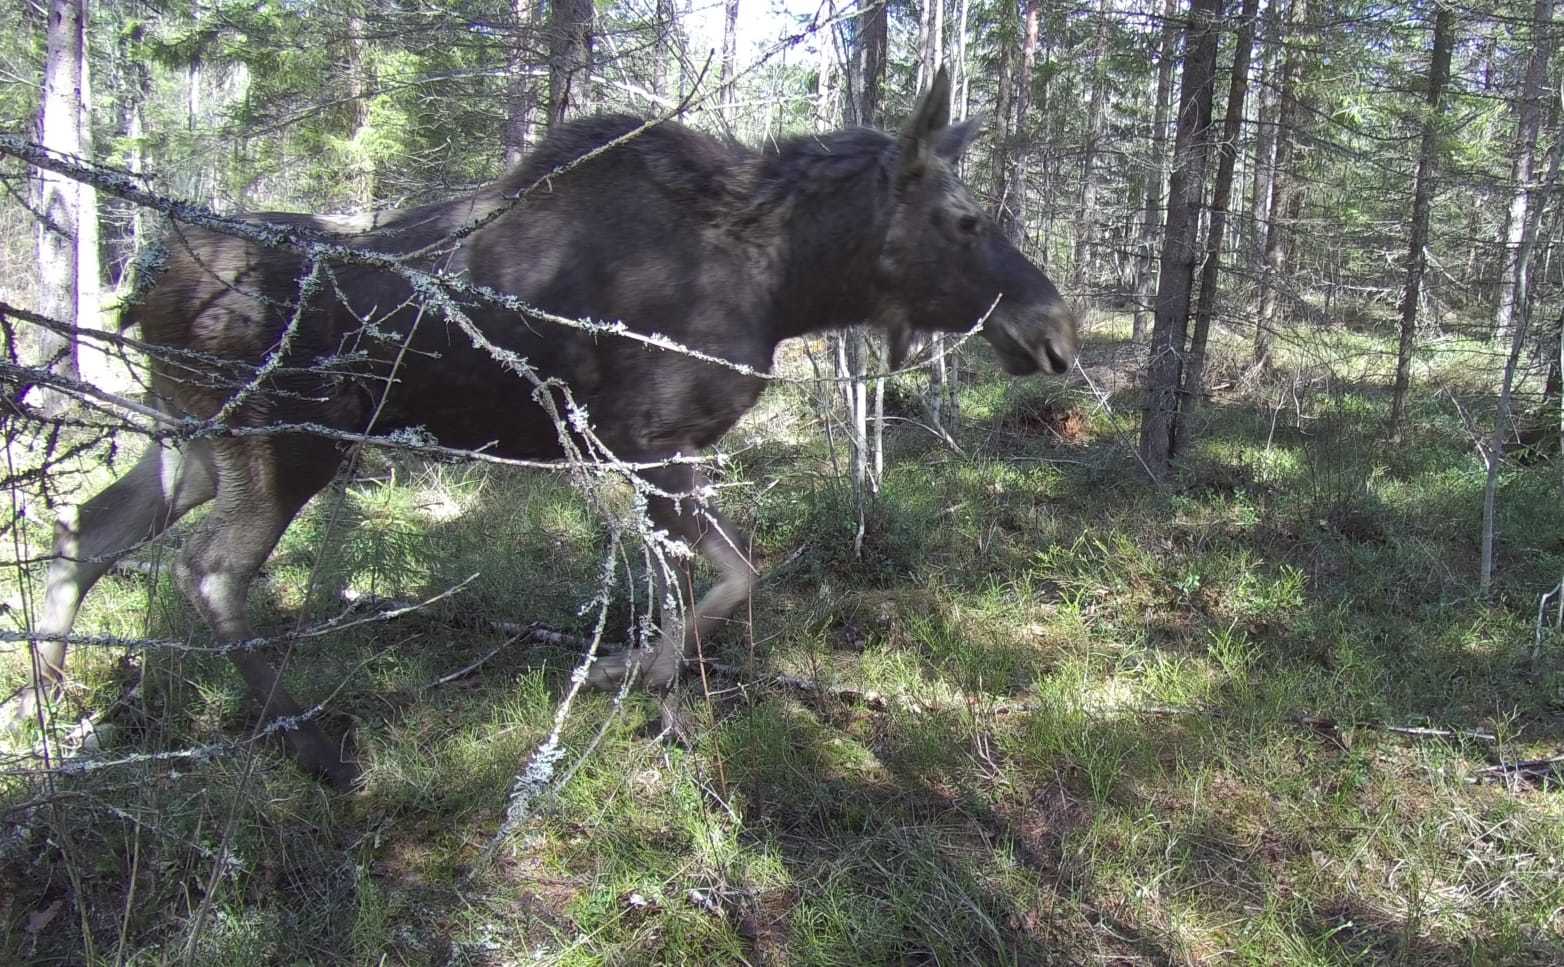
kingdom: Animalia
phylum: Chordata
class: Mammalia
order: Artiodactyla
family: Cervidae
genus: Alces
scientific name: Alces alces
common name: Moose
